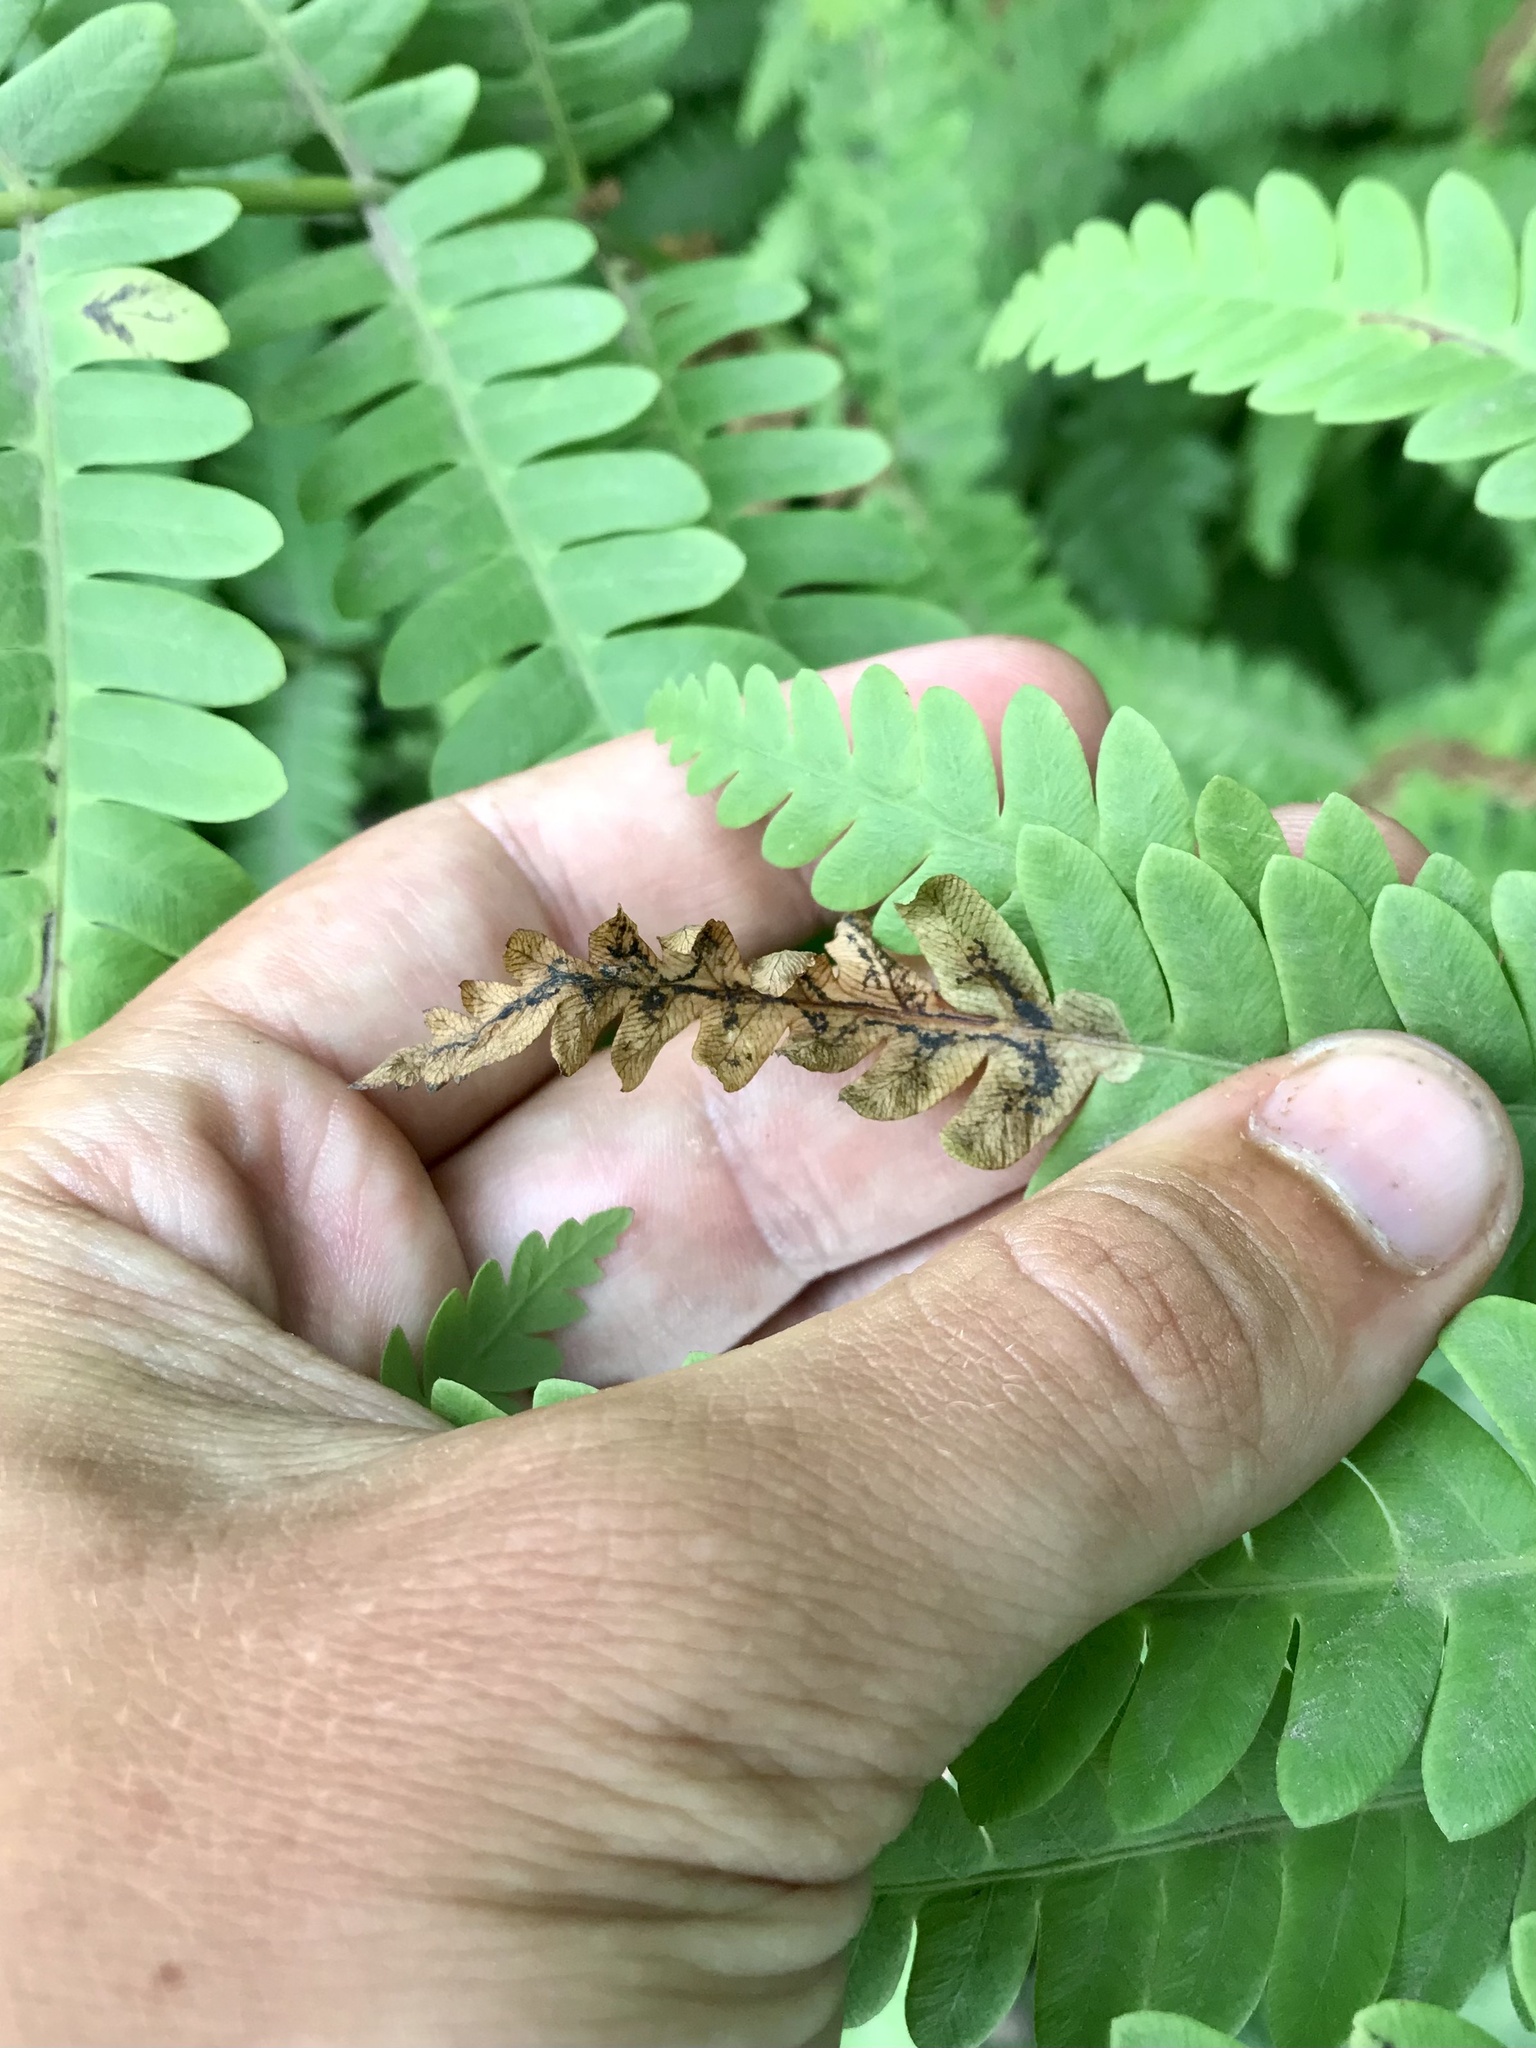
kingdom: Animalia
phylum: Arthropoda
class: Insecta
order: Diptera
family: Anthomyiidae
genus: Chirosia
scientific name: Chirosia filicis
